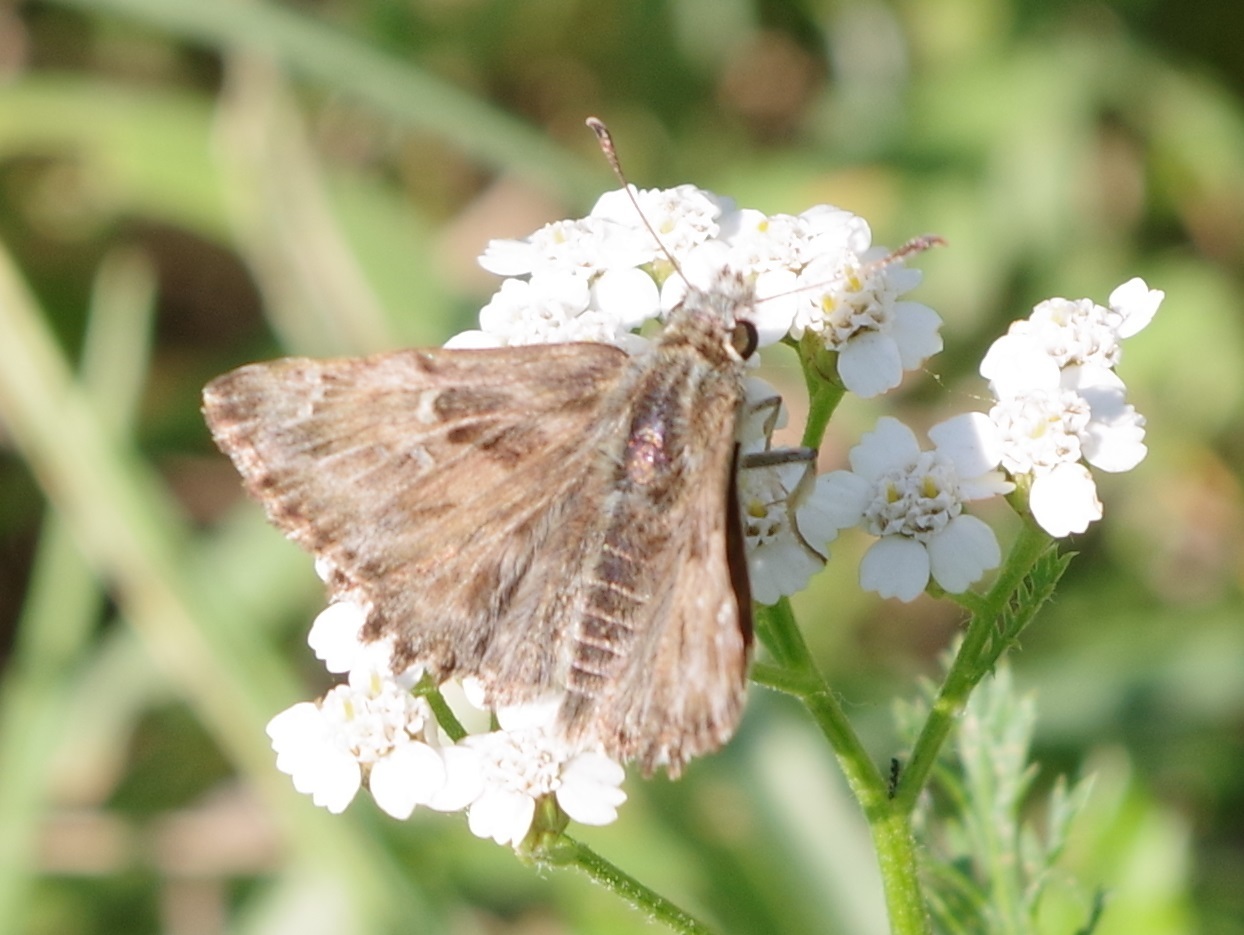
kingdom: Animalia
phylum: Arthropoda
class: Insecta
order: Lepidoptera
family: Hesperiidae
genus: Carcharodus
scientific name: Carcharodus alceae
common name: Mallow skipper
